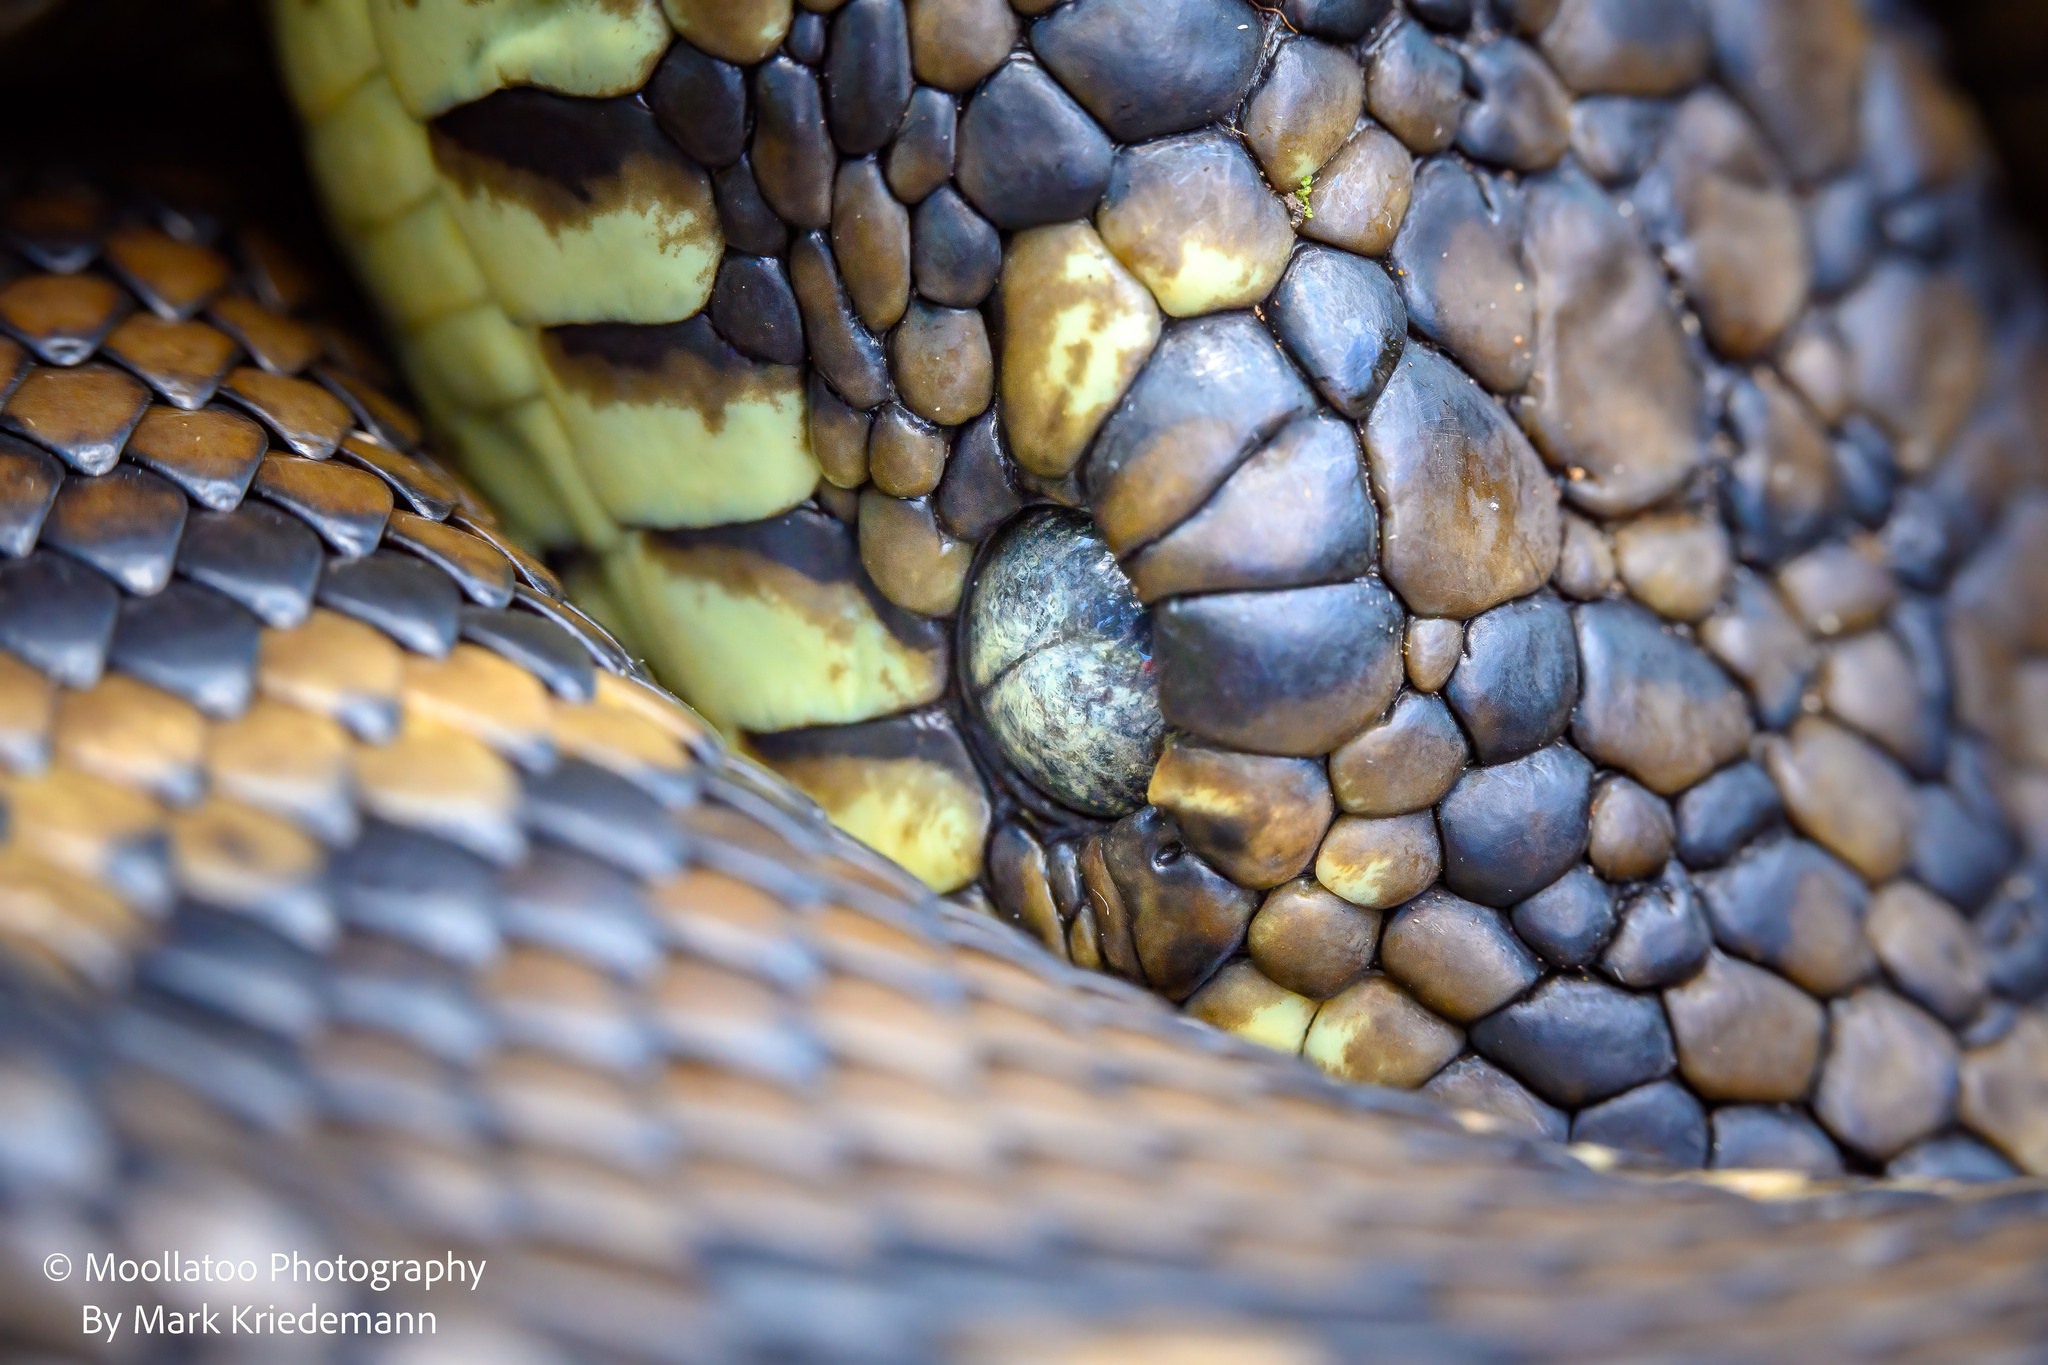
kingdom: Animalia
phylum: Chordata
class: Squamata
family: Pythonidae
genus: Morelia
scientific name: Morelia spilota
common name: Carpet python
